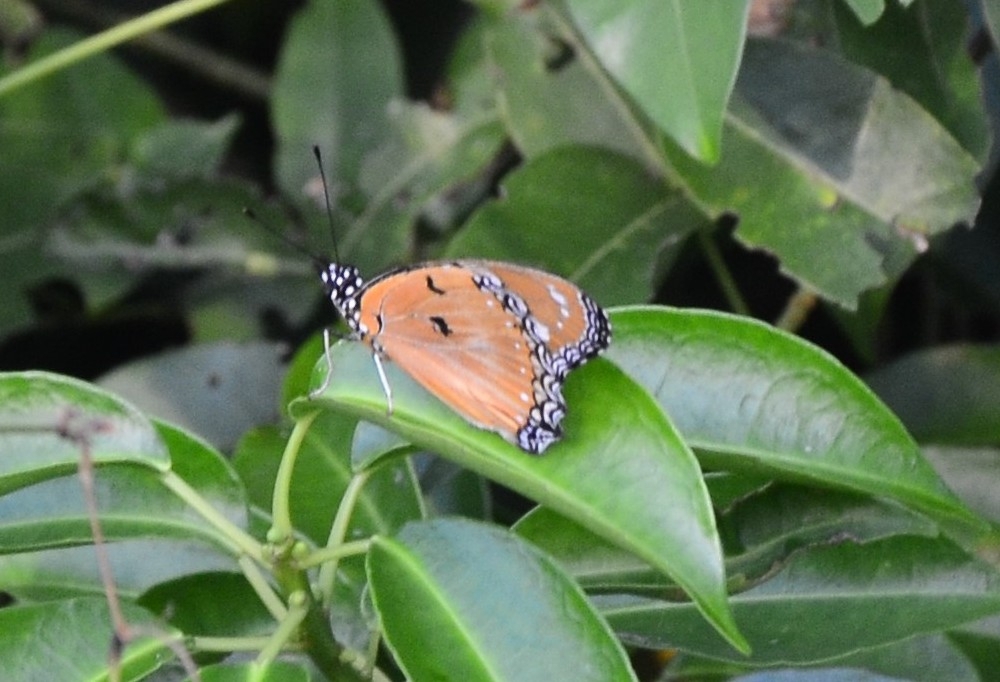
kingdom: Animalia
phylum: Arthropoda
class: Insecta
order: Lepidoptera
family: Nymphalidae
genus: Hypolimnas
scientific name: Hypolimnas misippus
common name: False plain tiger
